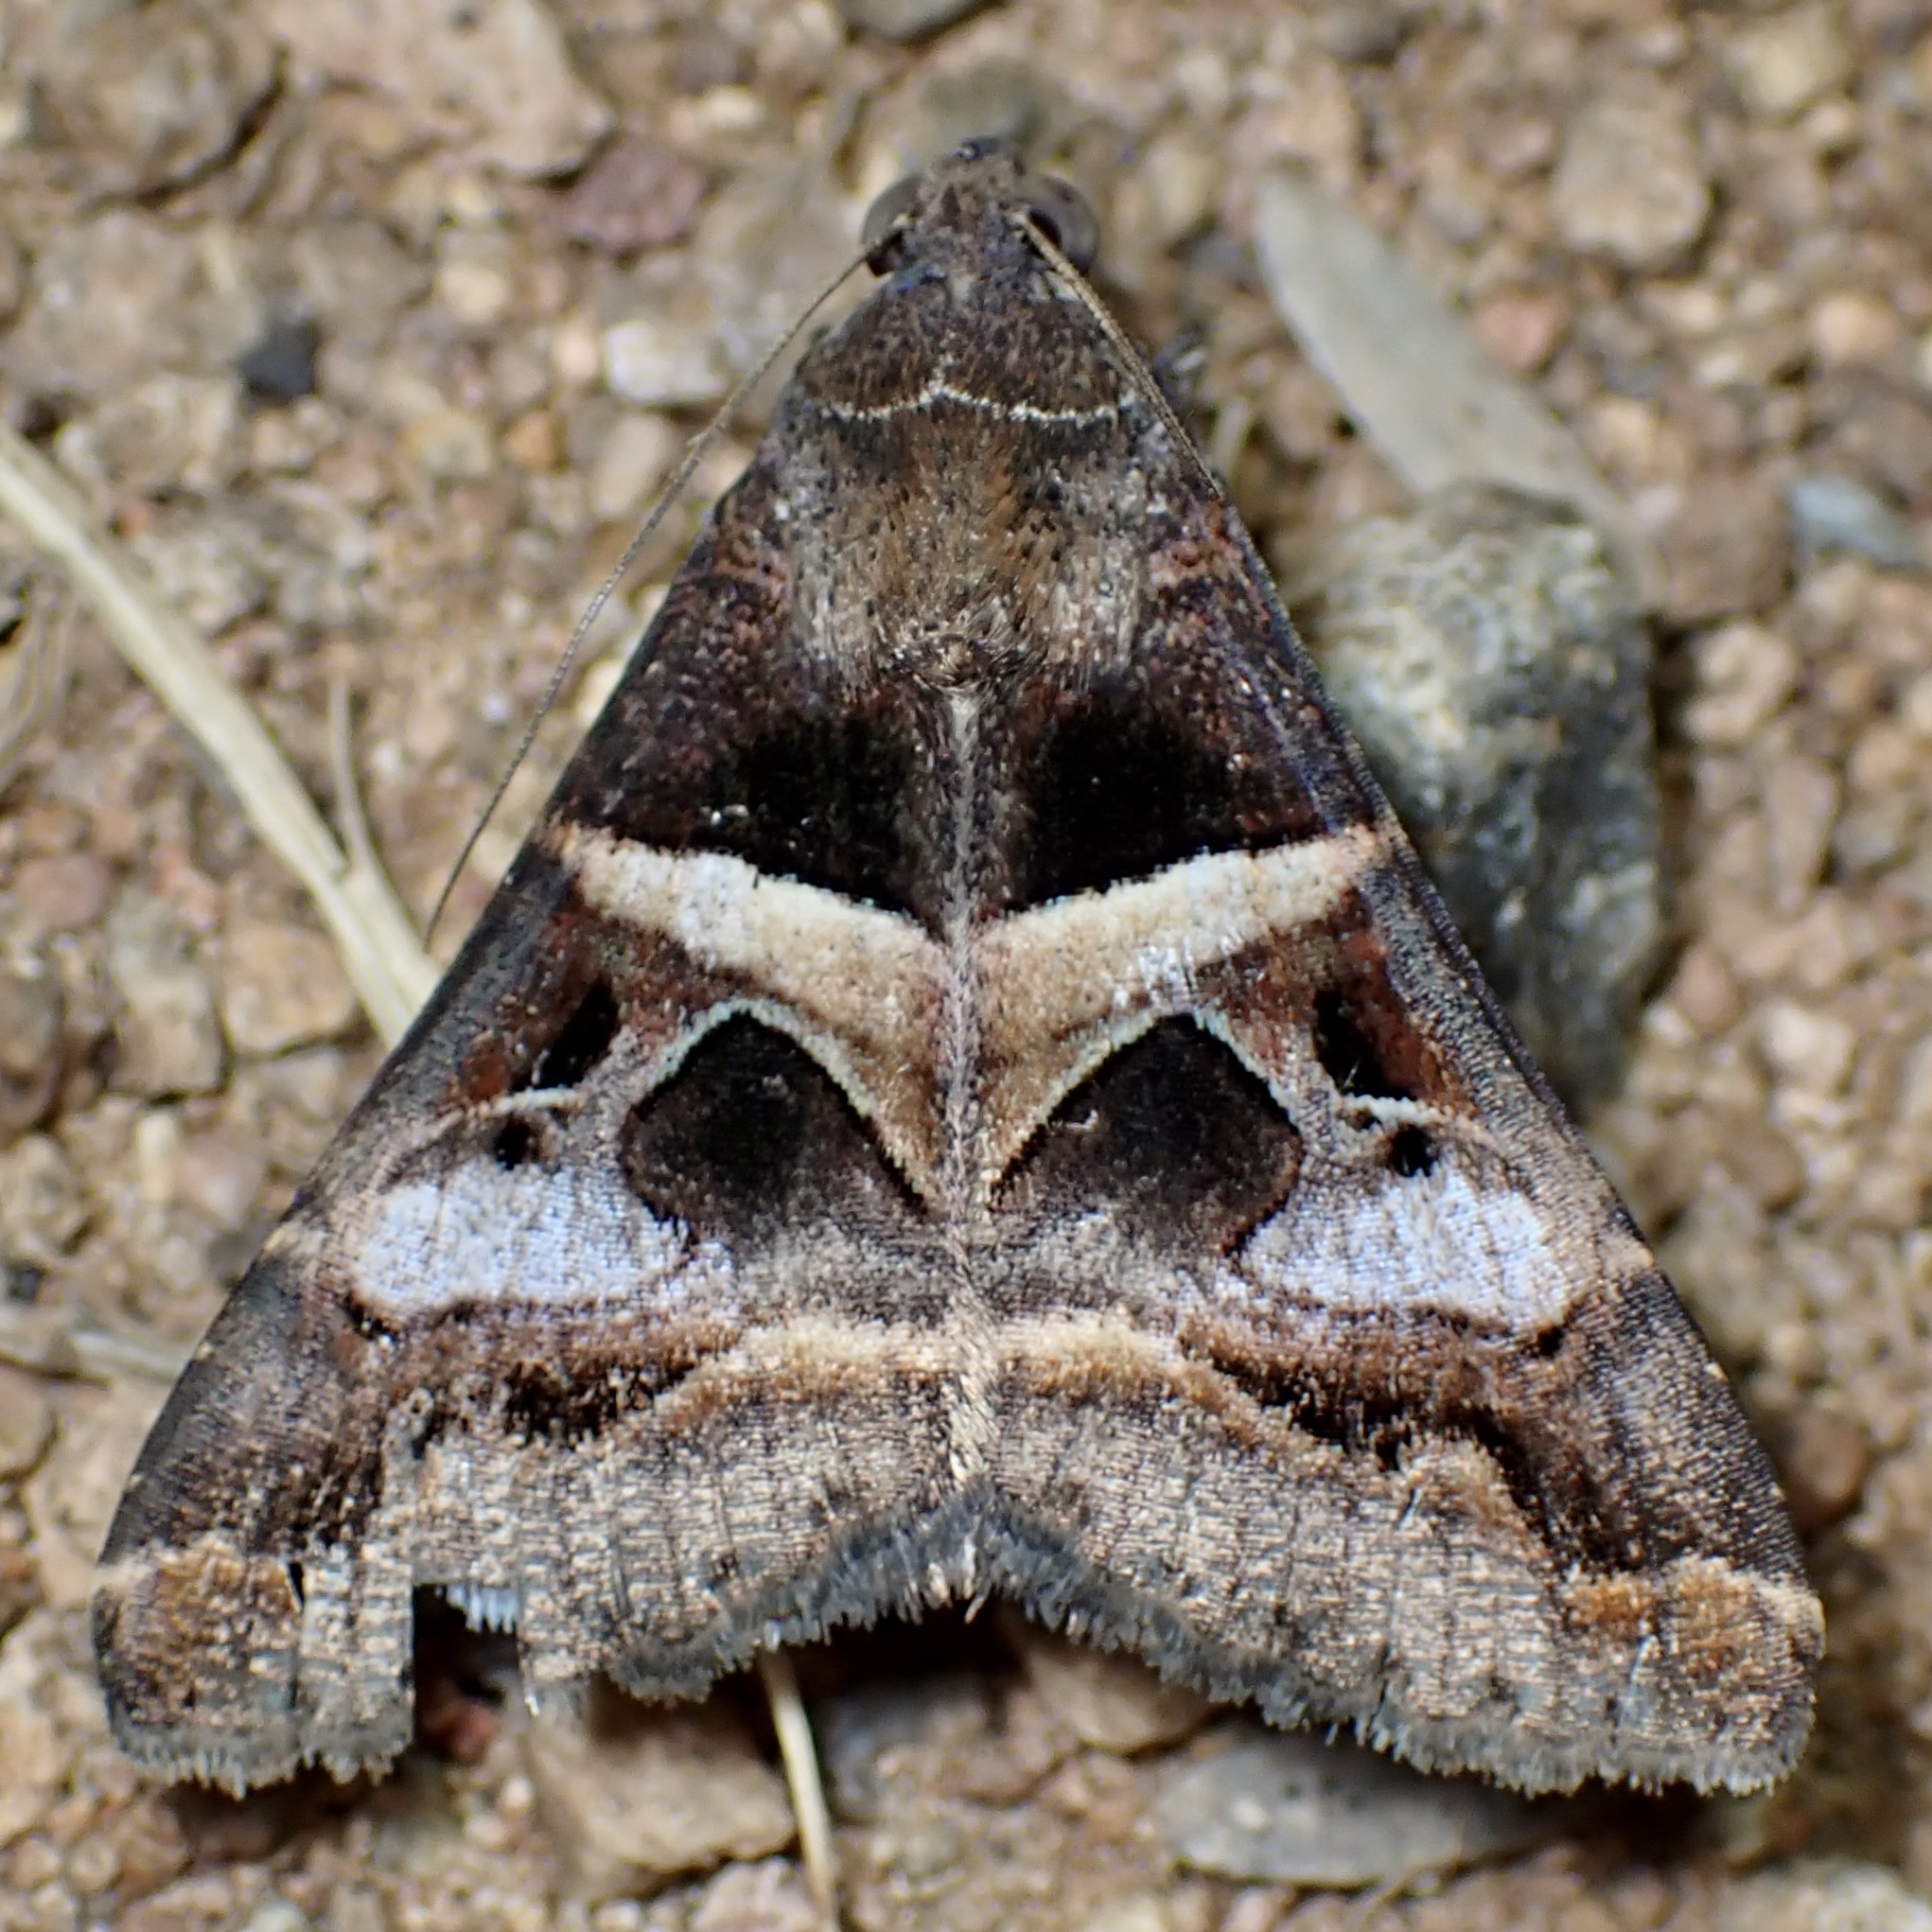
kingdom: Animalia
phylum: Arthropoda
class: Insecta
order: Lepidoptera
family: Erebidae
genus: Melipotis
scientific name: Melipotis perpendicularis
